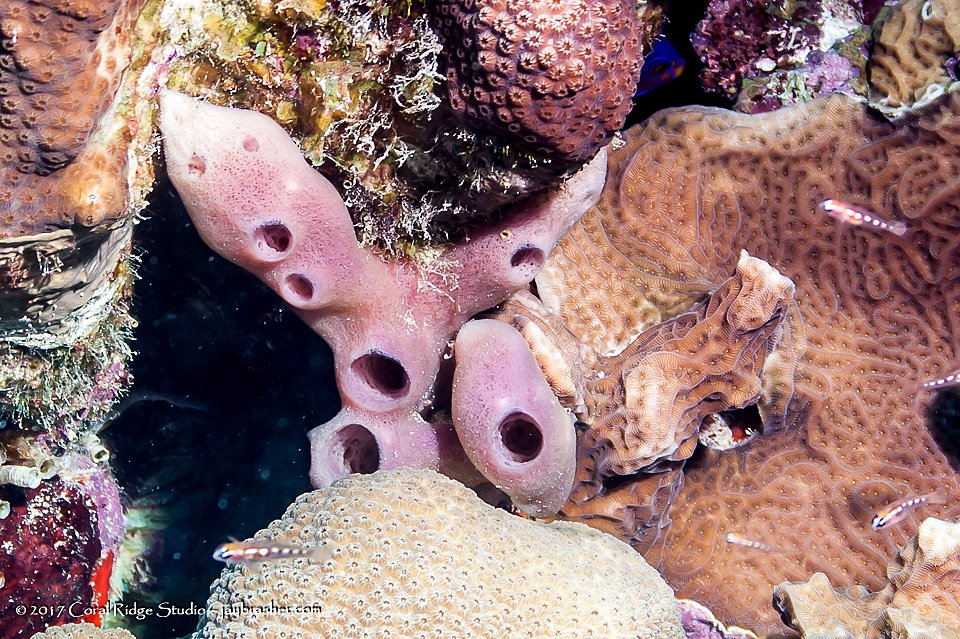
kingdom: Animalia
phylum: Porifera
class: Demospongiae
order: Haplosclerida
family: Callyspongiidae
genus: Callyspongia
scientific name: Callyspongia fallax
